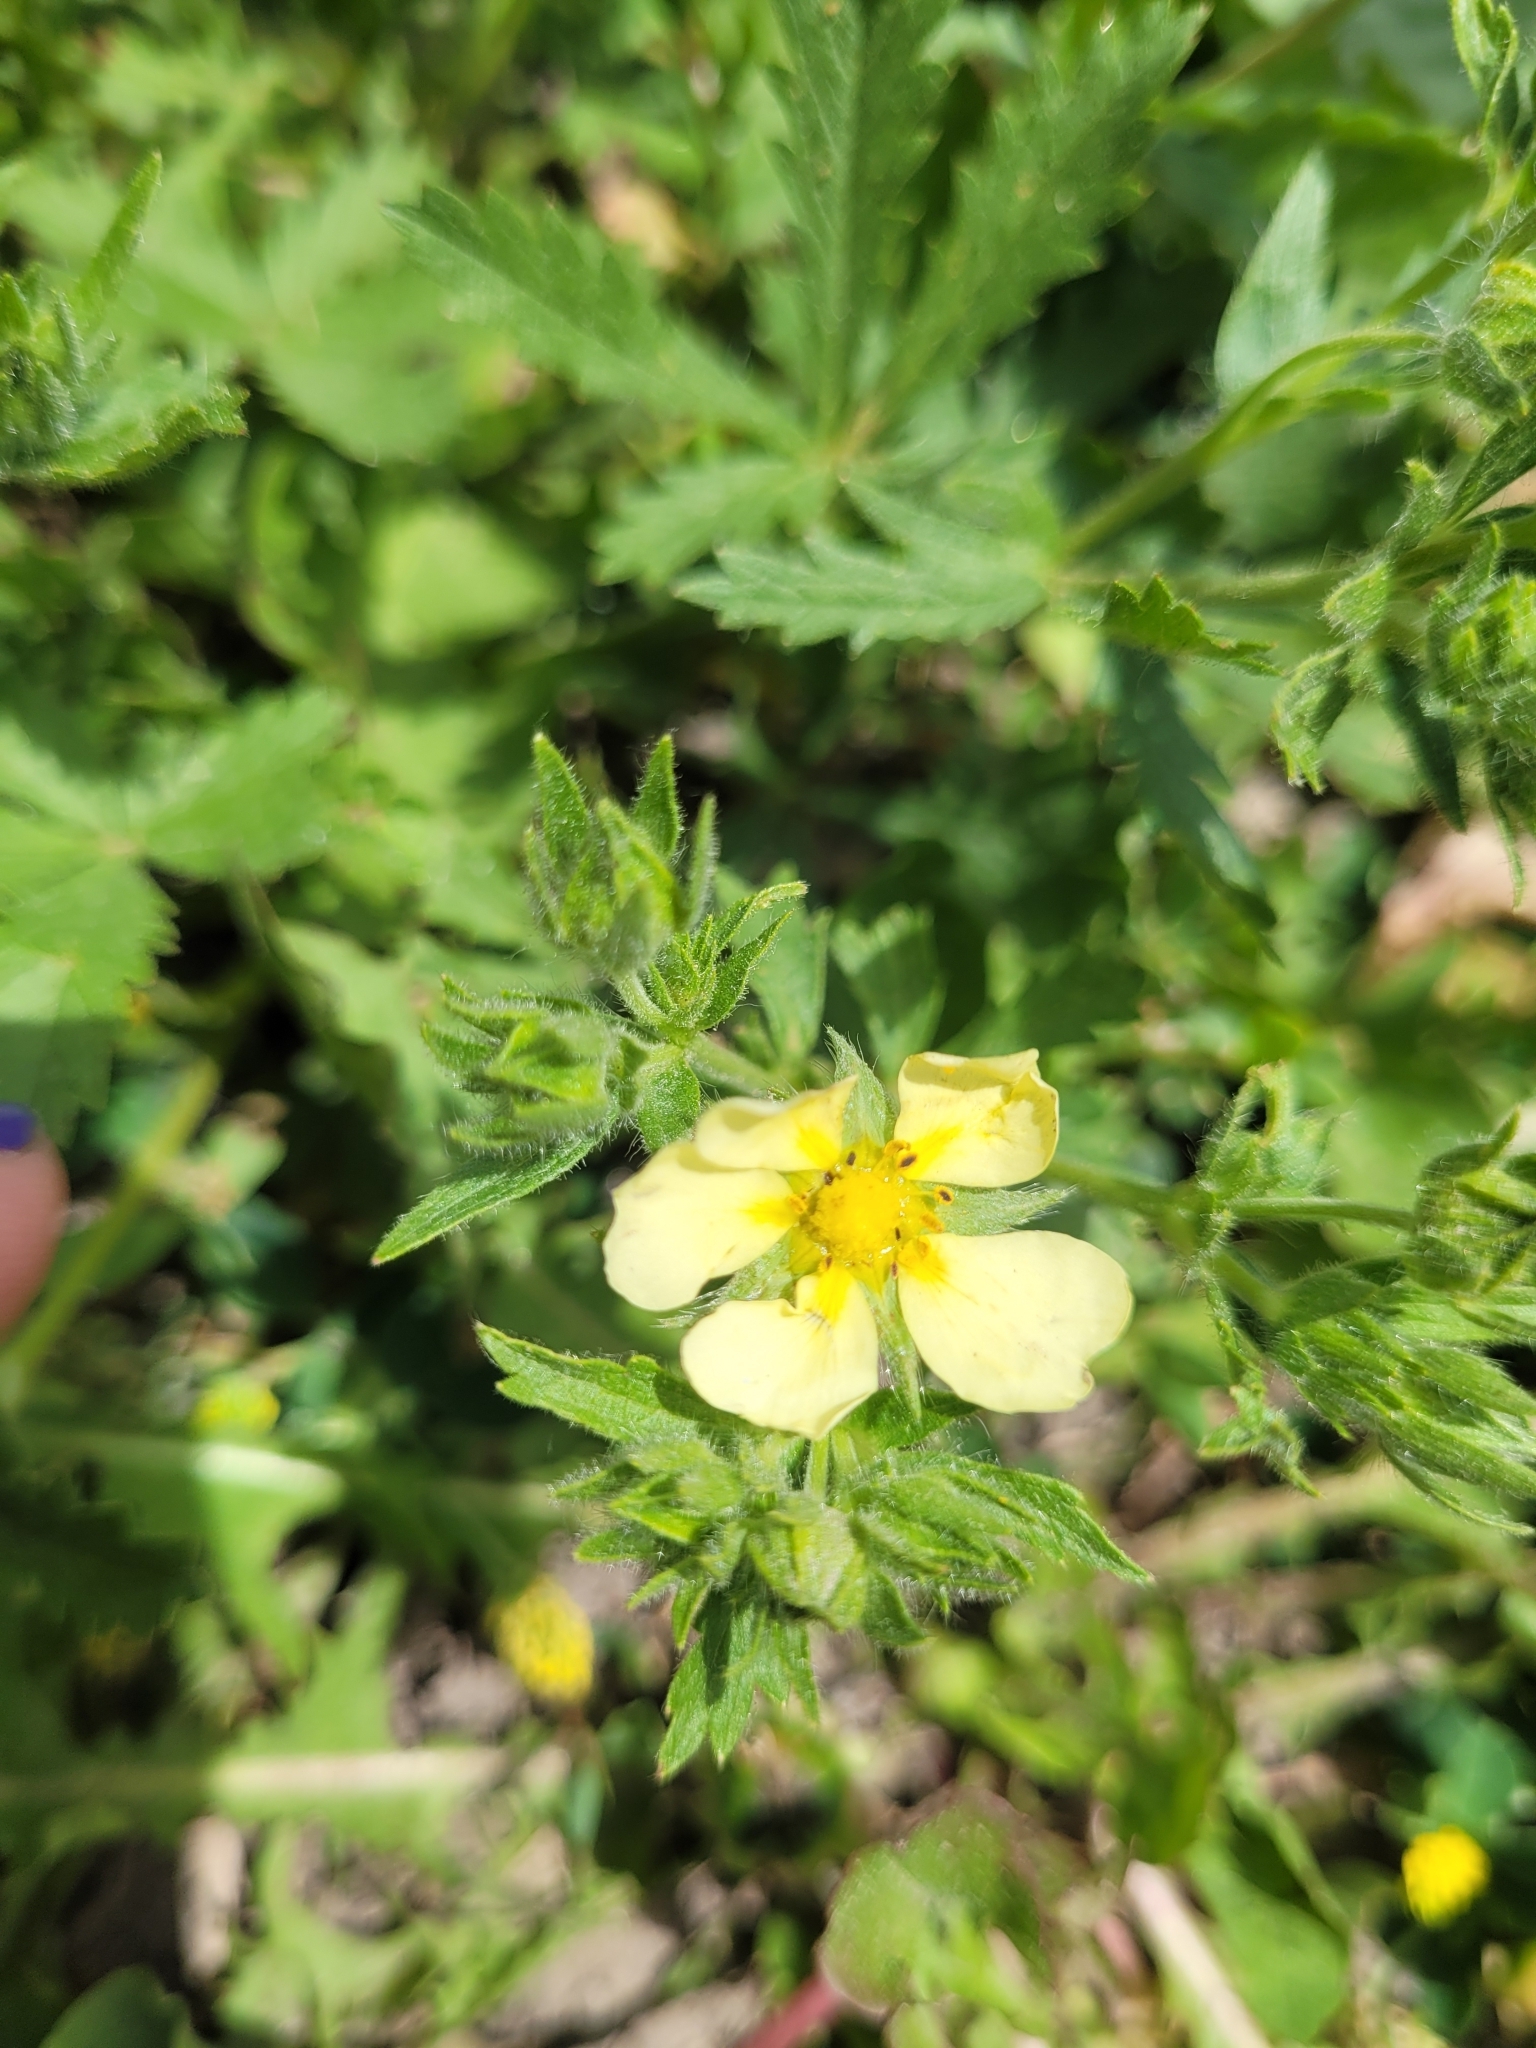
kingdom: Plantae
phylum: Tracheophyta
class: Magnoliopsida
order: Rosales
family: Rosaceae
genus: Potentilla
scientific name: Potentilla recta
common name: Sulphur cinquefoil
